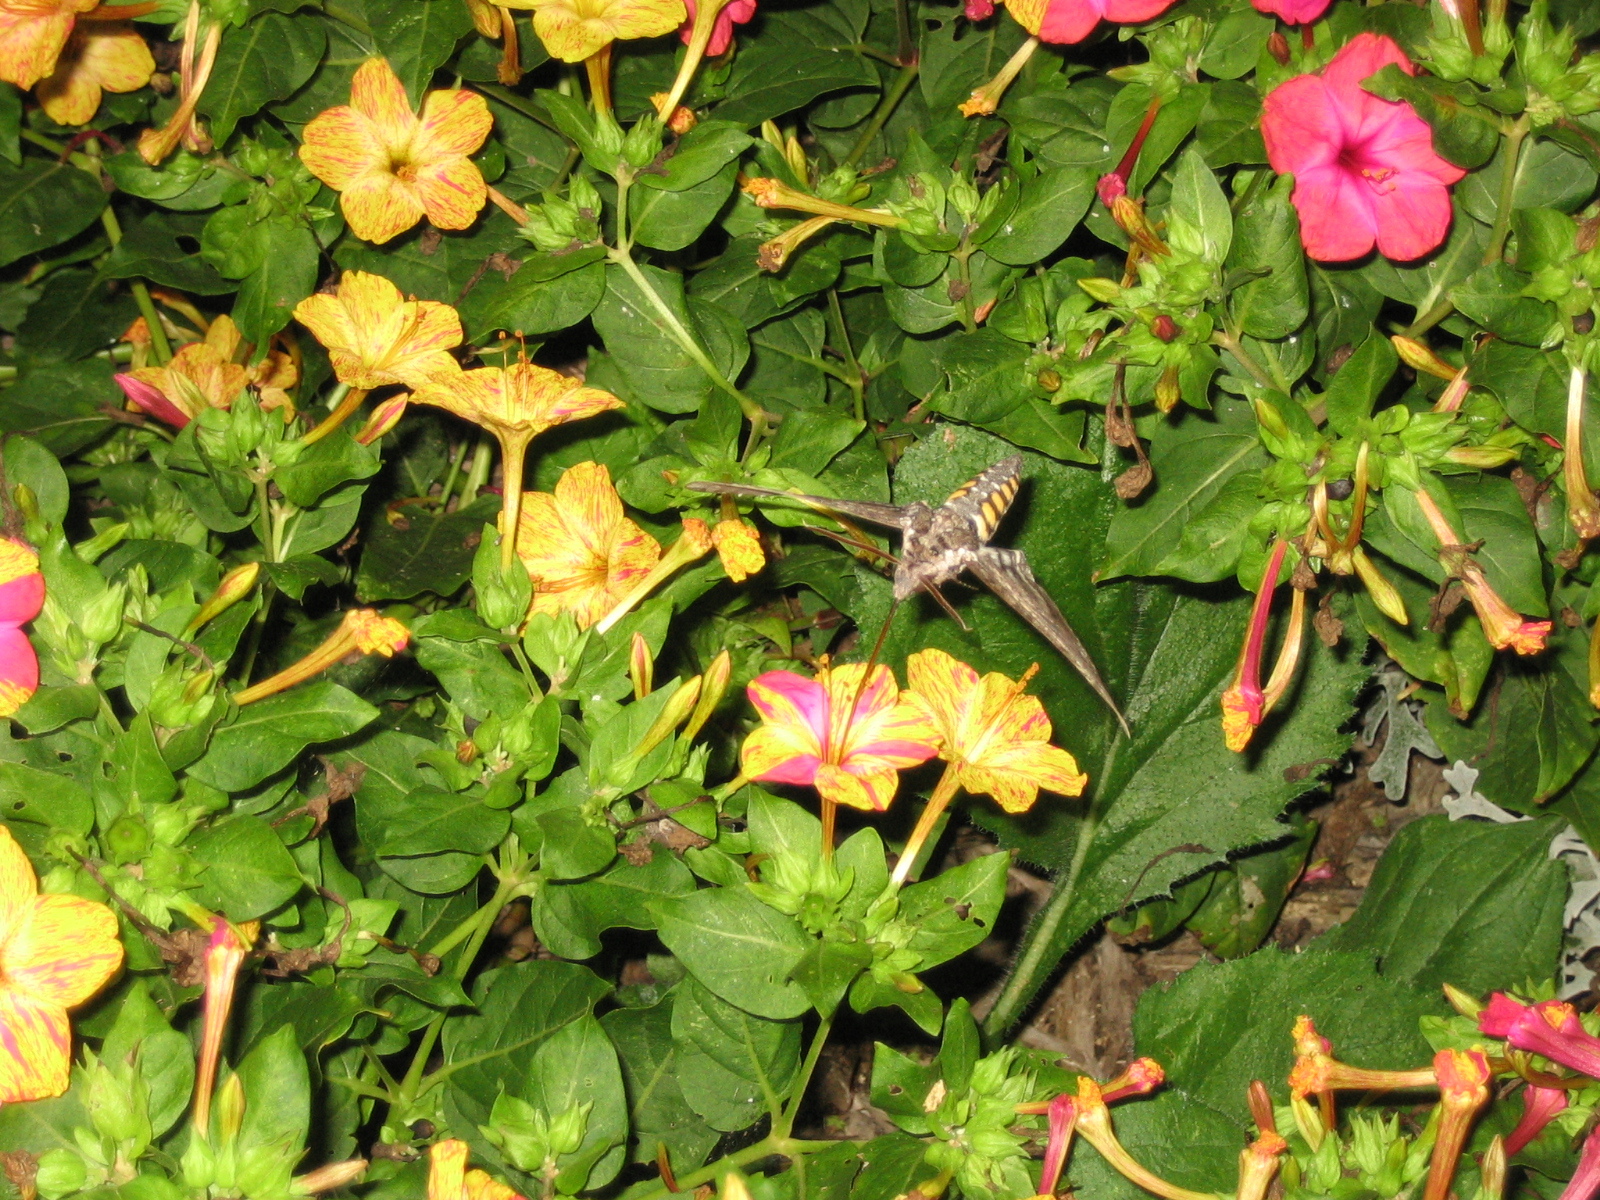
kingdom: Animalia
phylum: Arthropoda
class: Insecta
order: Lepidoptera
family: Sphingidae
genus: Manduca
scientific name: Manduca sexta
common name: Carolina sphinx
